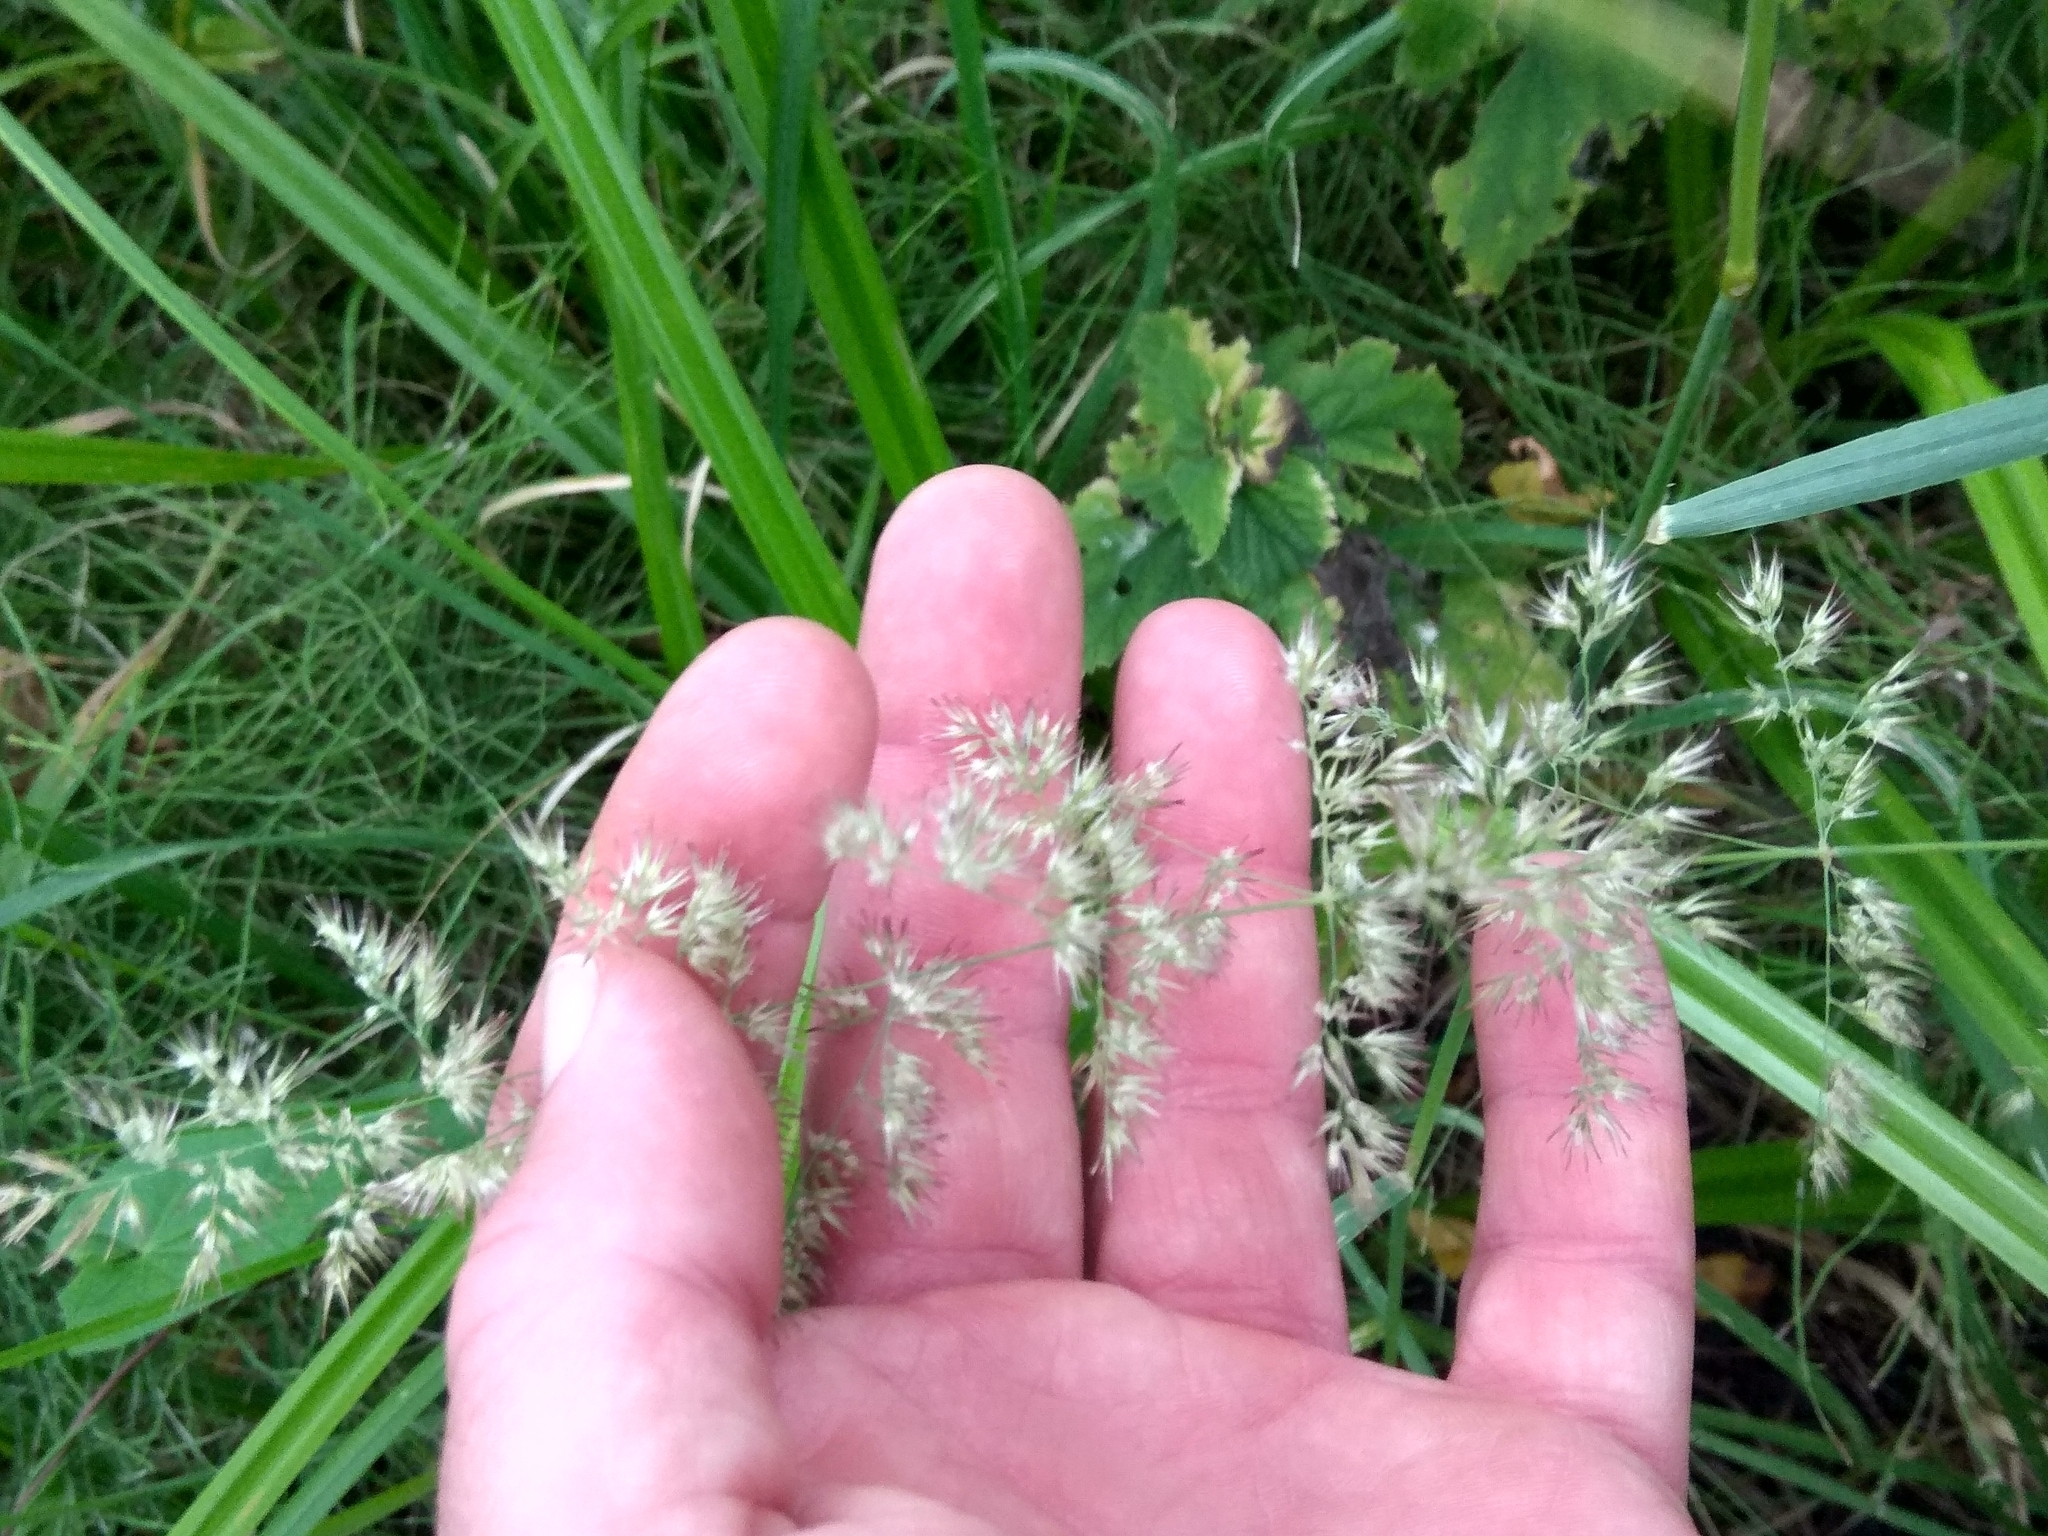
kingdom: Plantae
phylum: Tracheophyta
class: Liliopsida
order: Poales
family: Poaceae
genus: Calamagrostis
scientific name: Calamagrostis epigejos
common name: Wood small-reed
